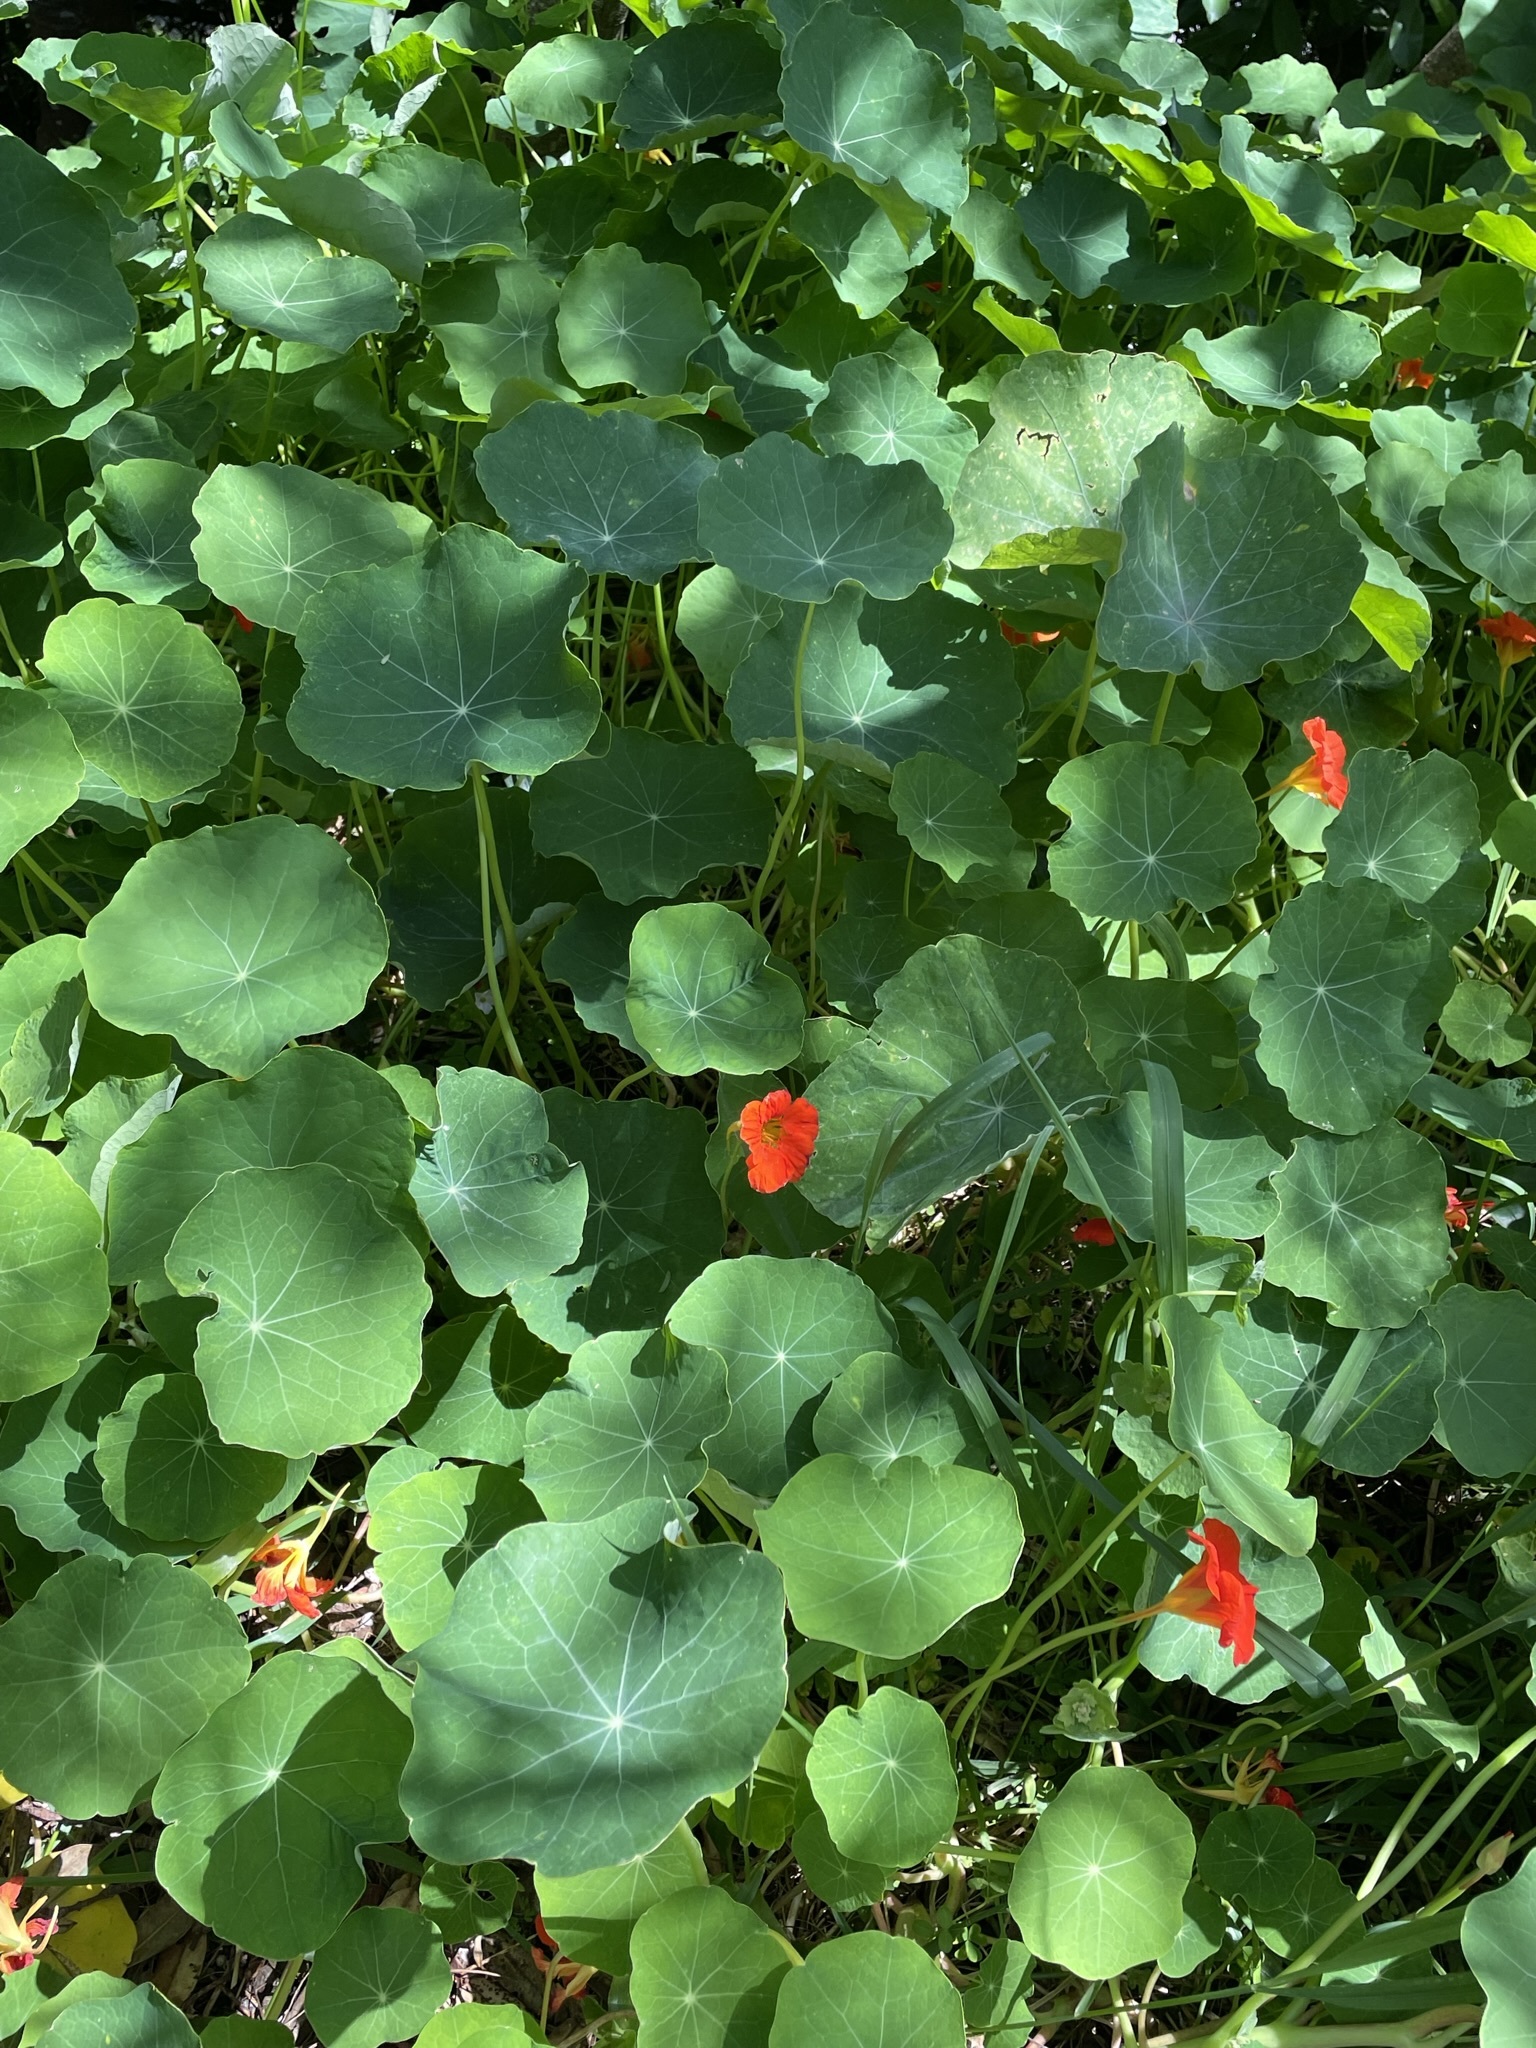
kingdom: Plantae
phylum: Tracheophyta
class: Magnoliopsida
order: Brassicales
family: Tropaeolaceae
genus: Tropaeolum
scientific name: Tropaeolum majus
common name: Nasturtium
